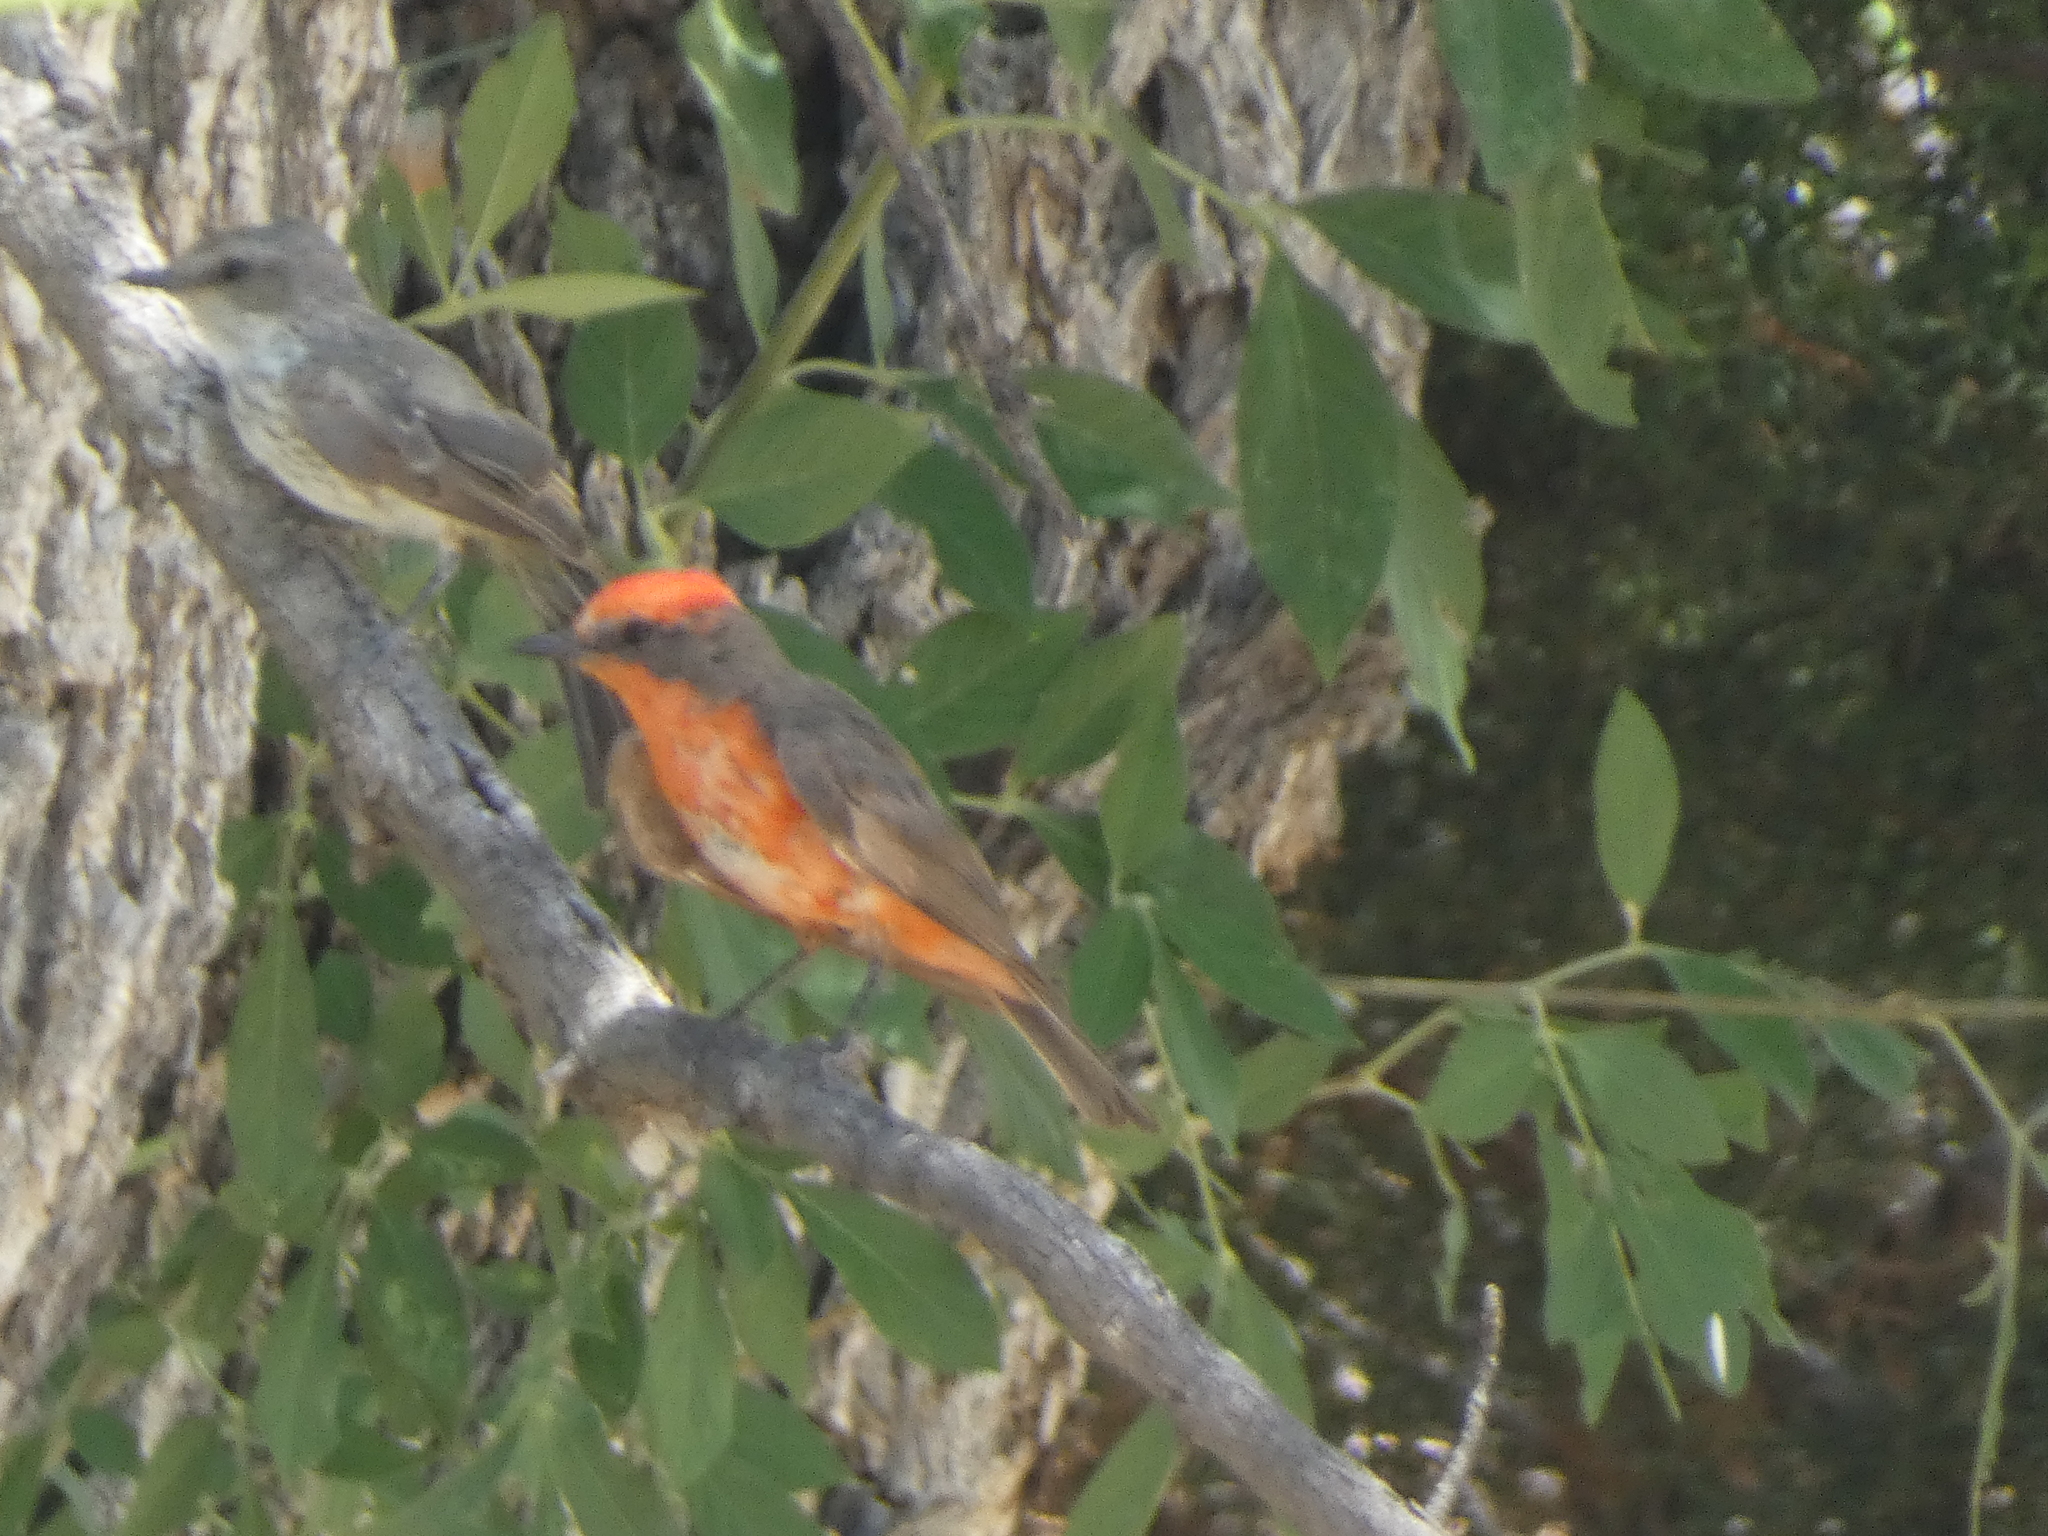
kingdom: Animalia
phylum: Chordata
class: Aves
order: Passeriformes
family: Tyrannidae
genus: Pyrocephalus
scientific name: Pyrocephalus rubinus
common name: Vermilion flycatcher
